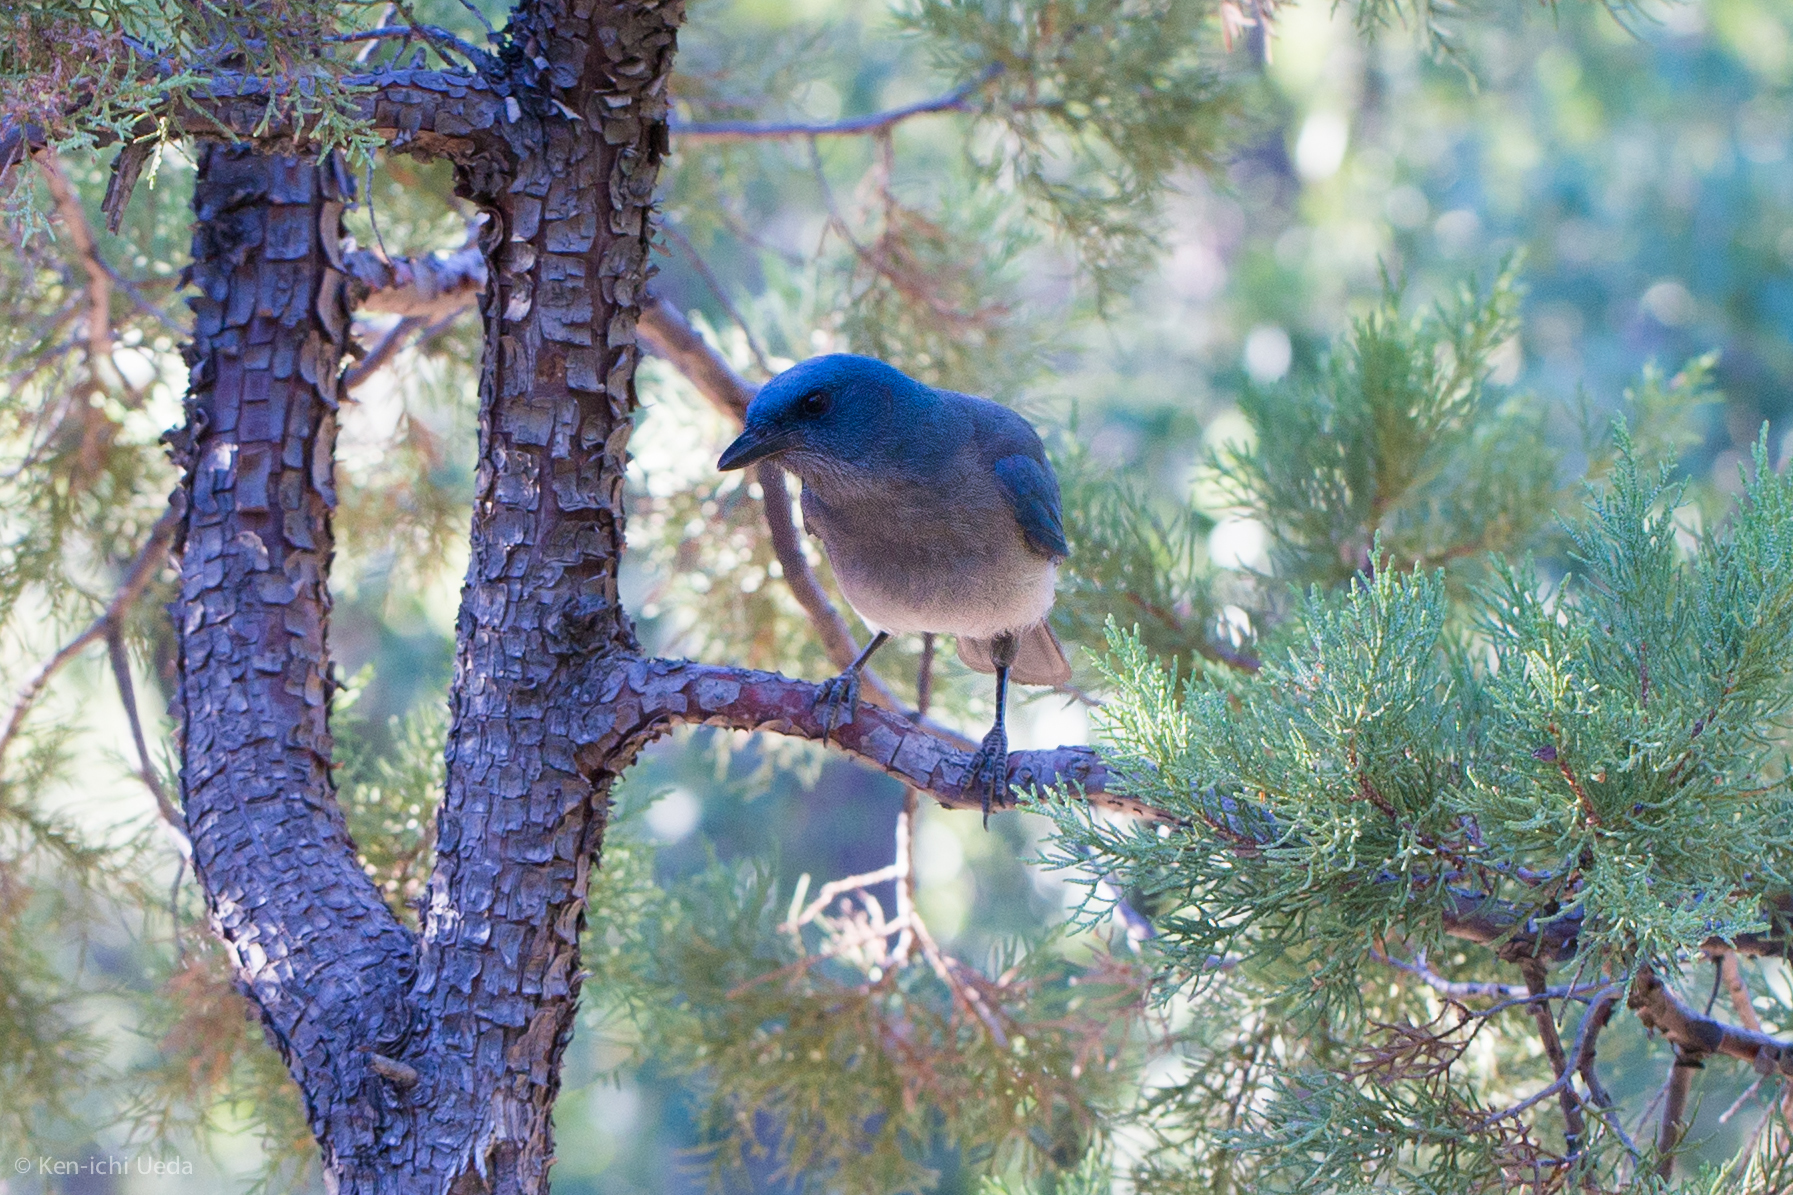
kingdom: Animalia
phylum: Chordata
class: Aves
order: Passeriformes
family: Corvidae
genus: Aphelocoma
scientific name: Aphelocoma wollweberi
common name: Mexican jay
